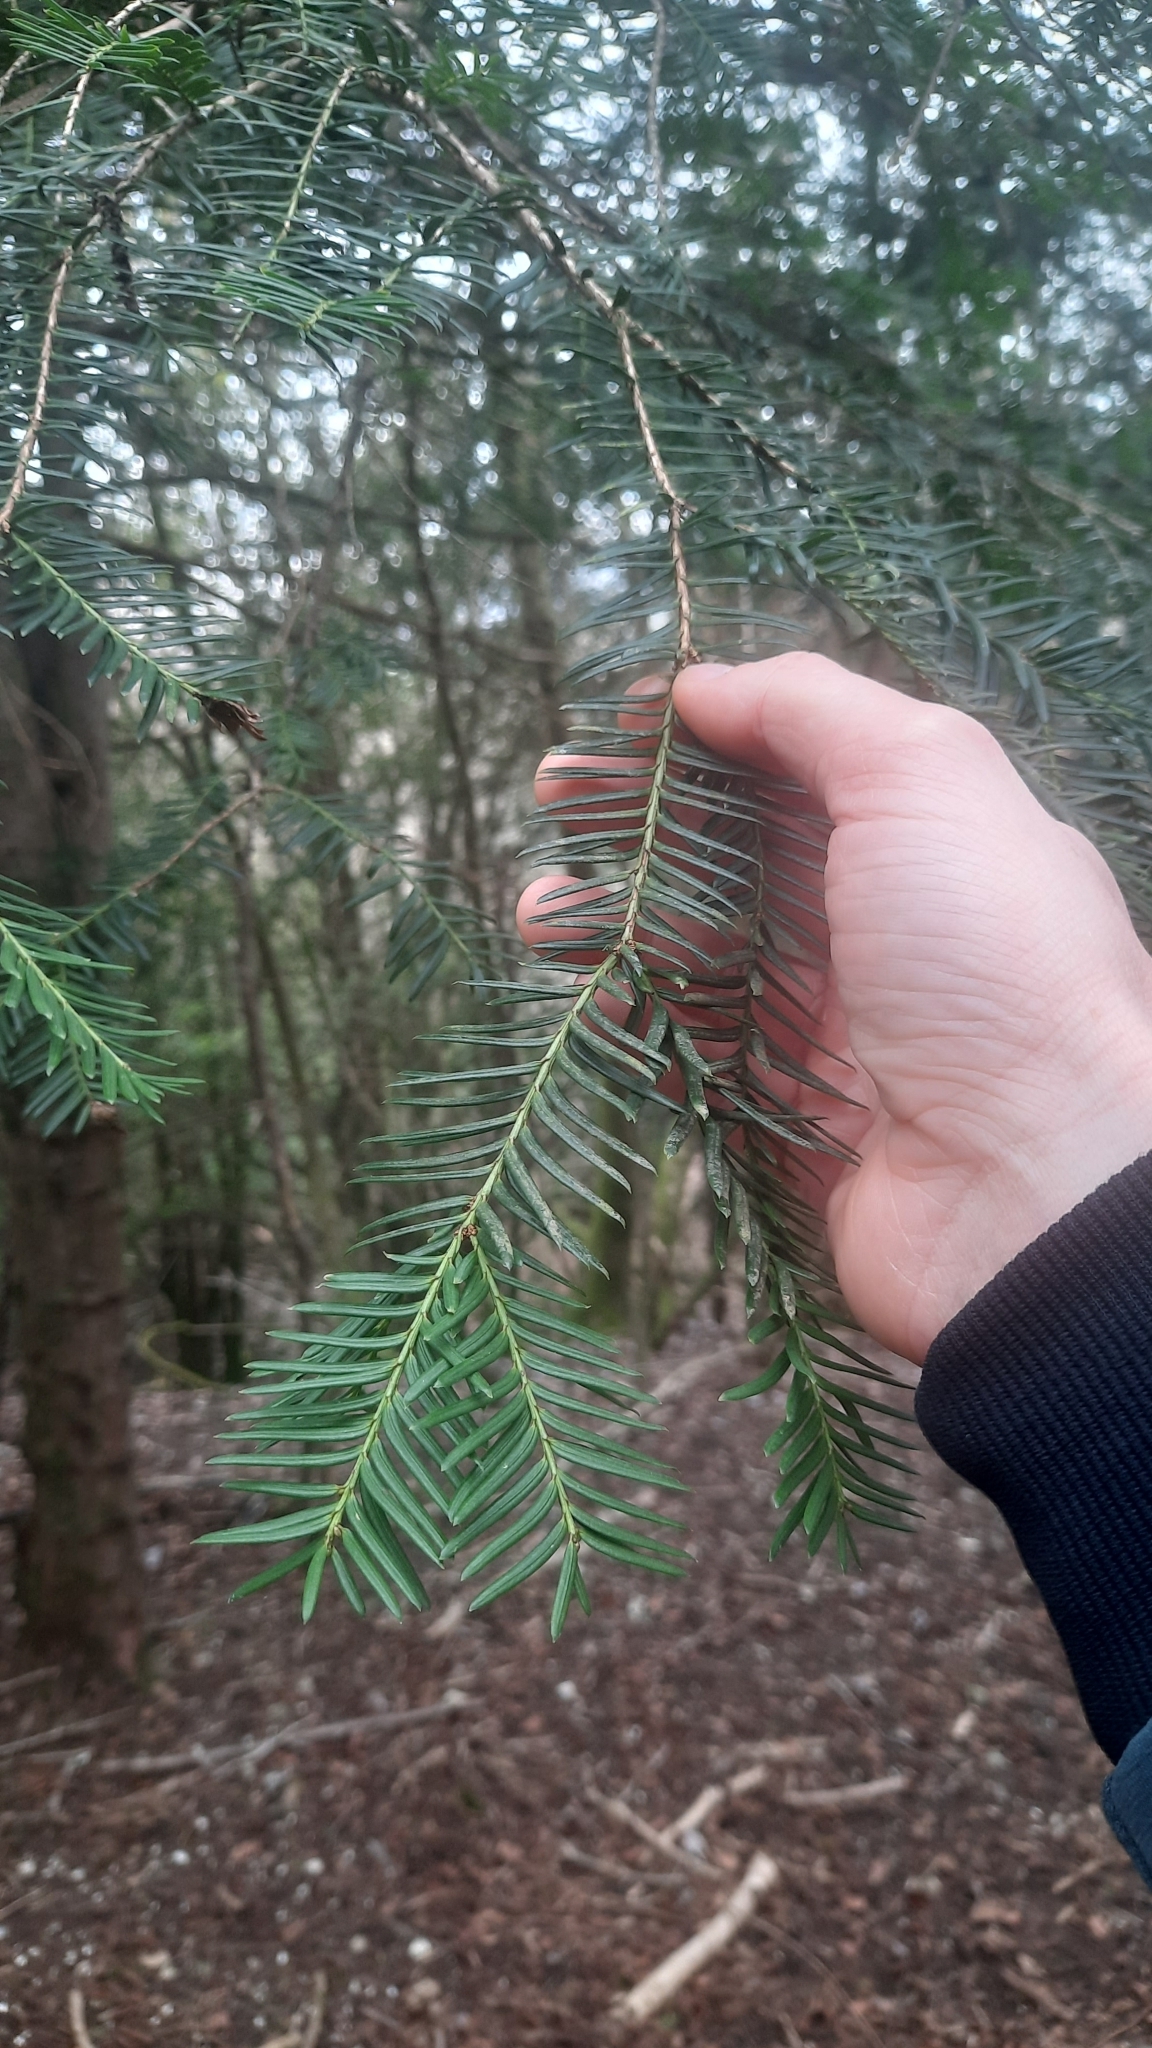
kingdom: Plantae
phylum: Tracheophyta
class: Pinopsida
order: Pinales
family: Taxaceae
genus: Taxus
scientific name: Taxus baccata
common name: Yew
